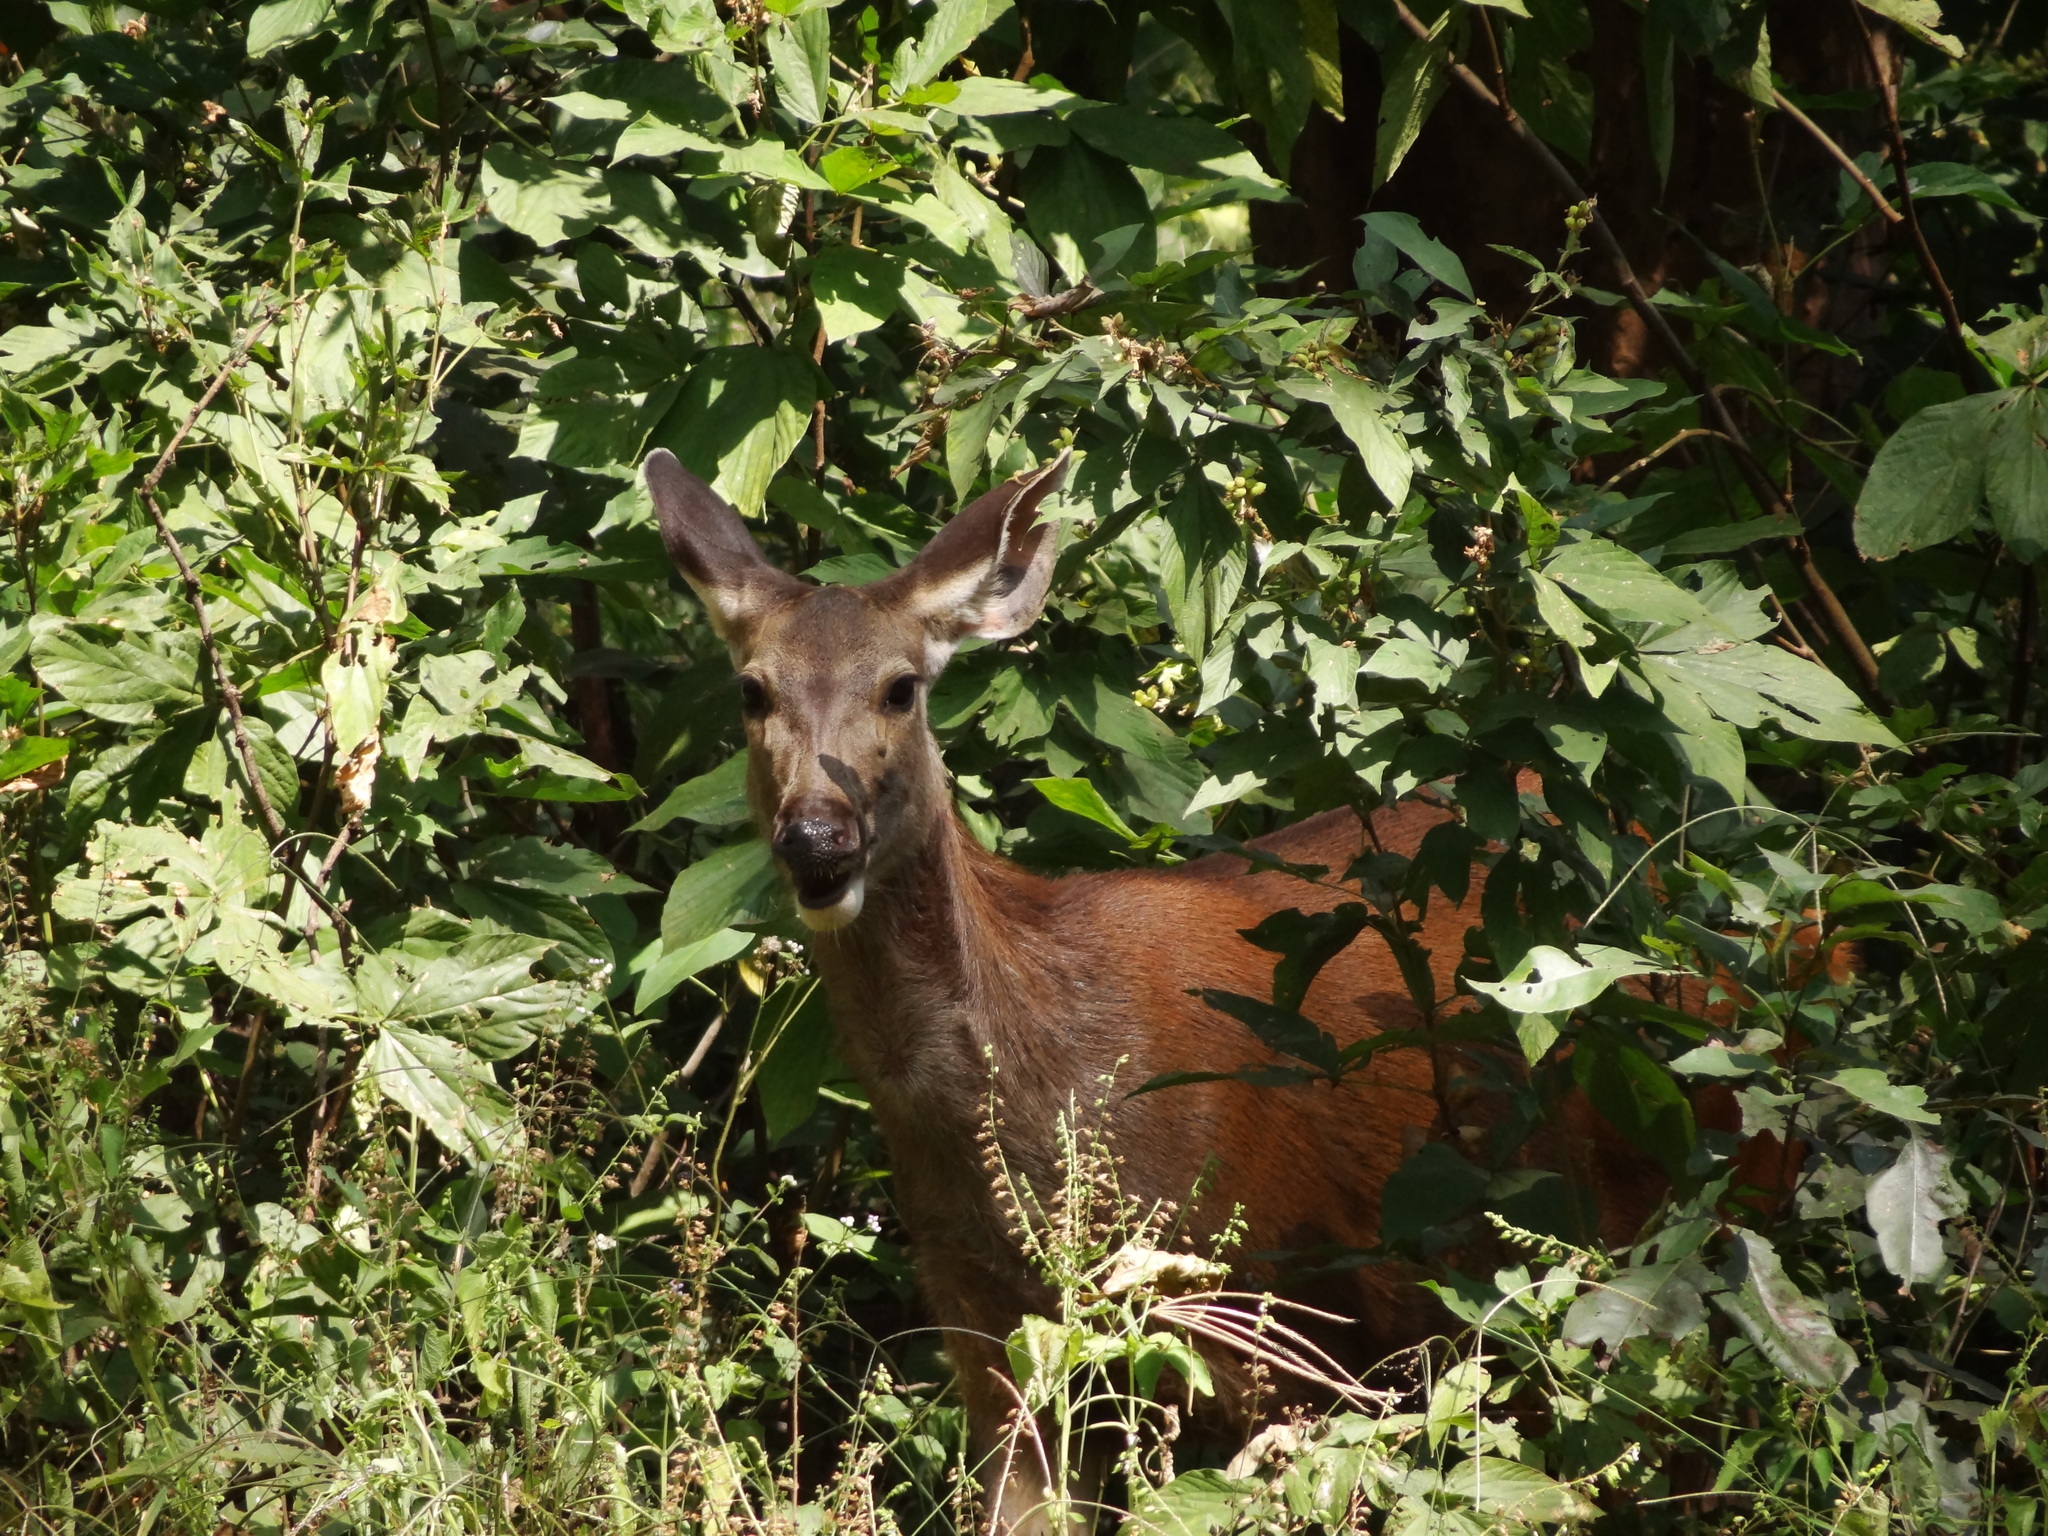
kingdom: Animalia
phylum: Chordata
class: Mammalia
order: Artiodactyla
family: Cervidae
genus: Rusa
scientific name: Rusa unicolor
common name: Sambar
